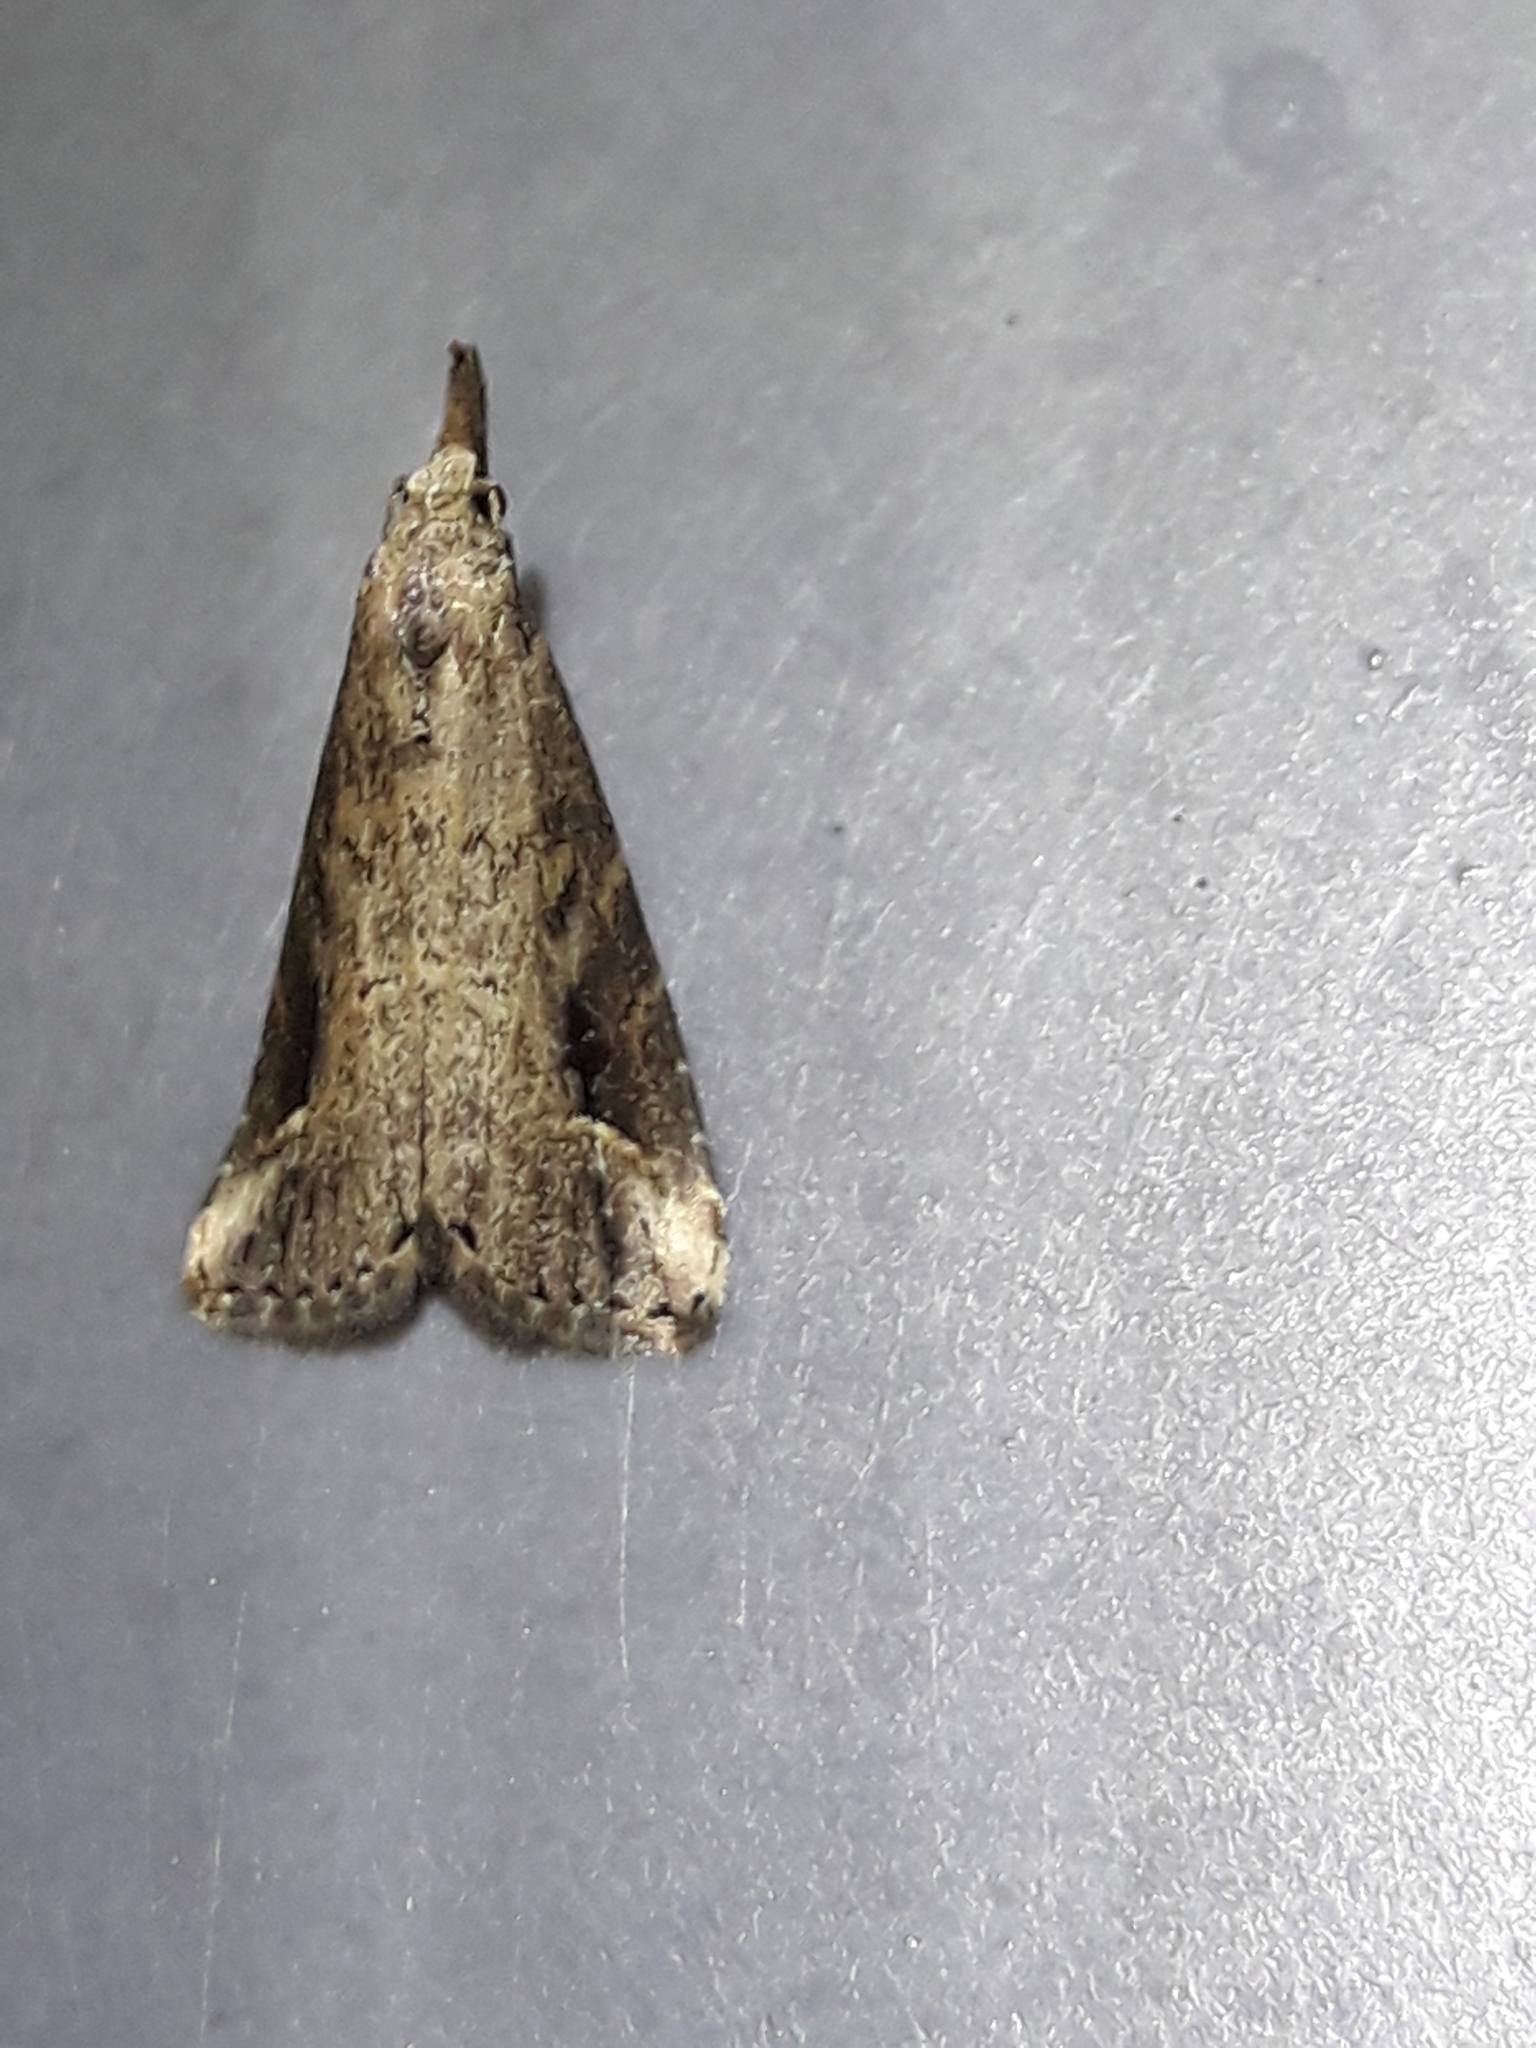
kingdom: Animalia
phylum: Arthropoda
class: Insecta
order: Lepidoptera
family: Erebidae
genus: Schrankia
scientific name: Schrankia costaestrigalis
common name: Pinion-streaked snout
